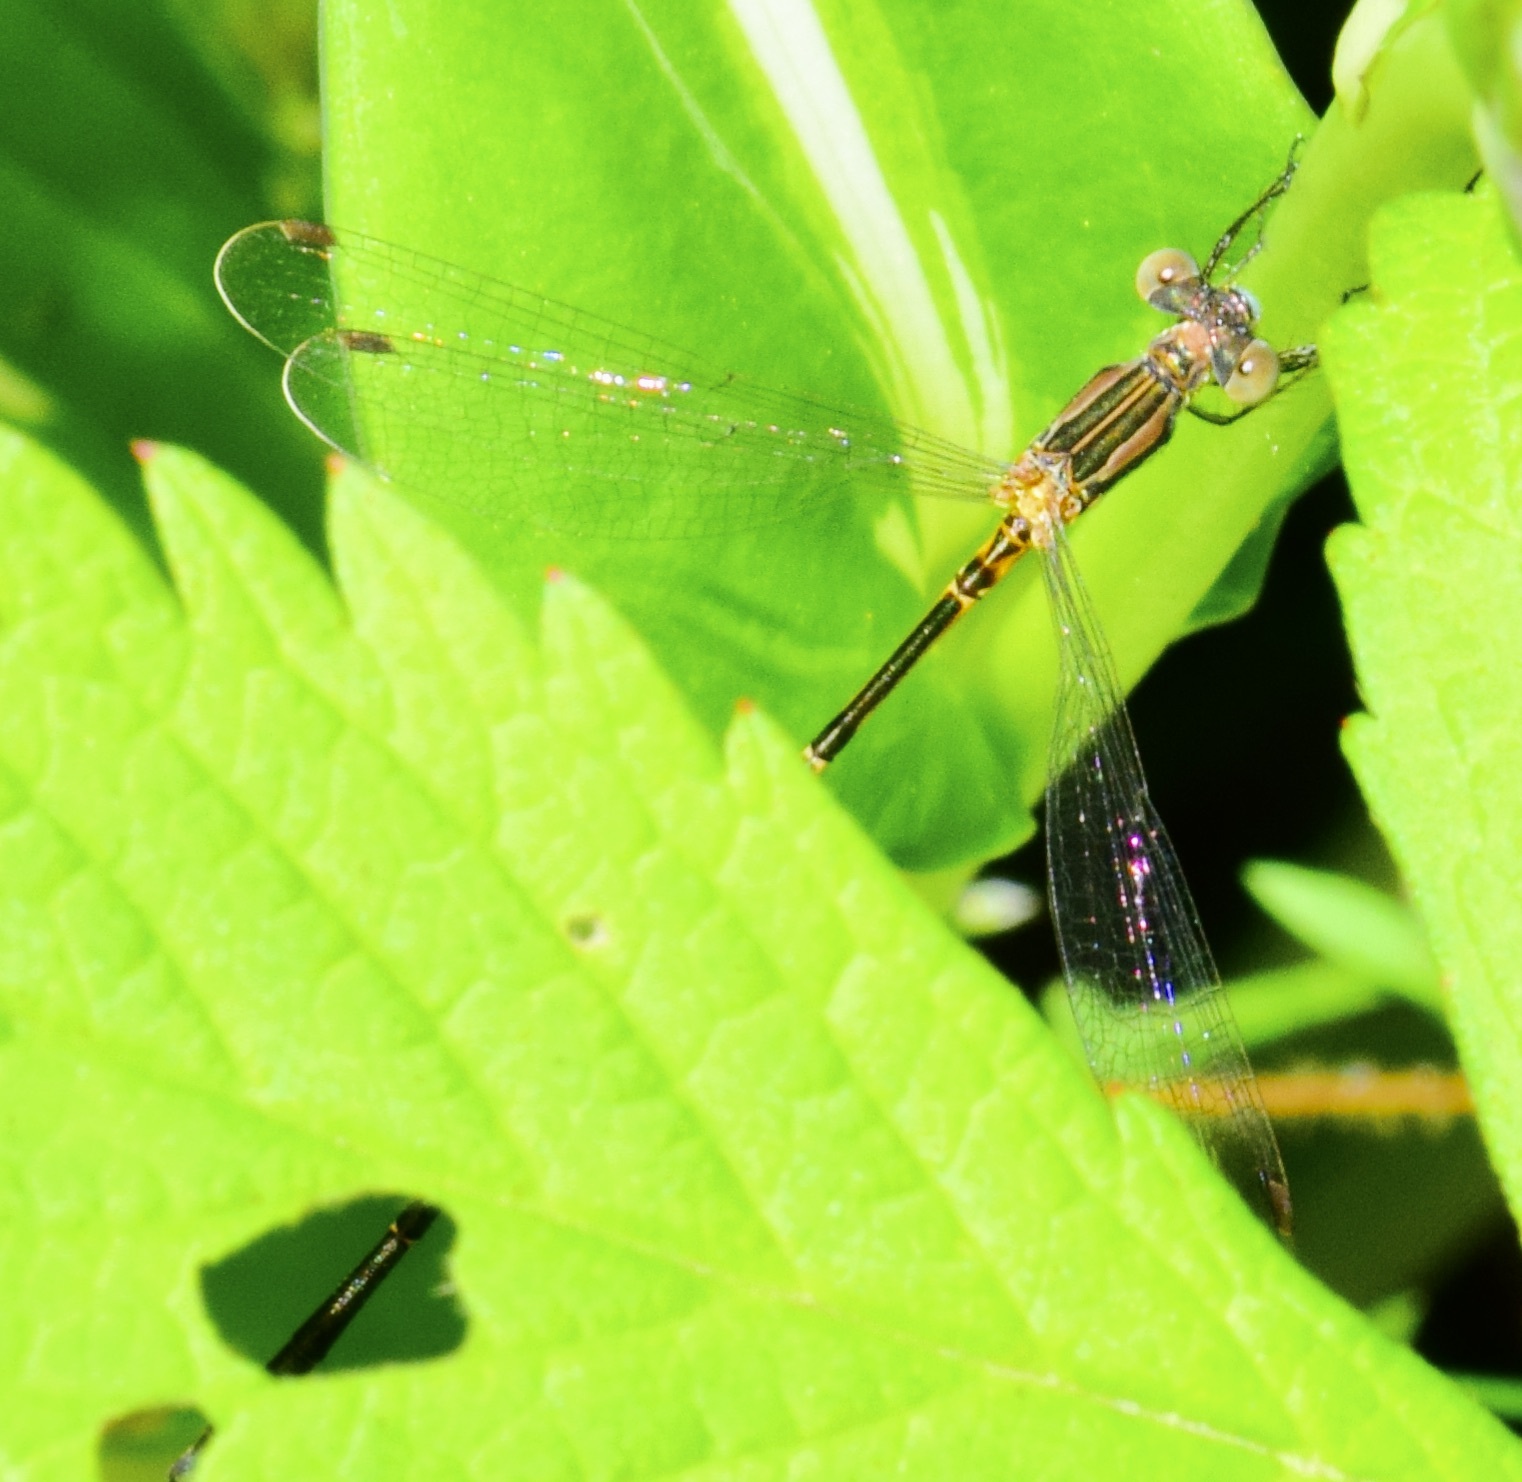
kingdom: Animalia
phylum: Arthropoda
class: Insecta
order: Odonata
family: Lestidae
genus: Lestes
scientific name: Lestes rectangularis
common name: Slender spreadwing
